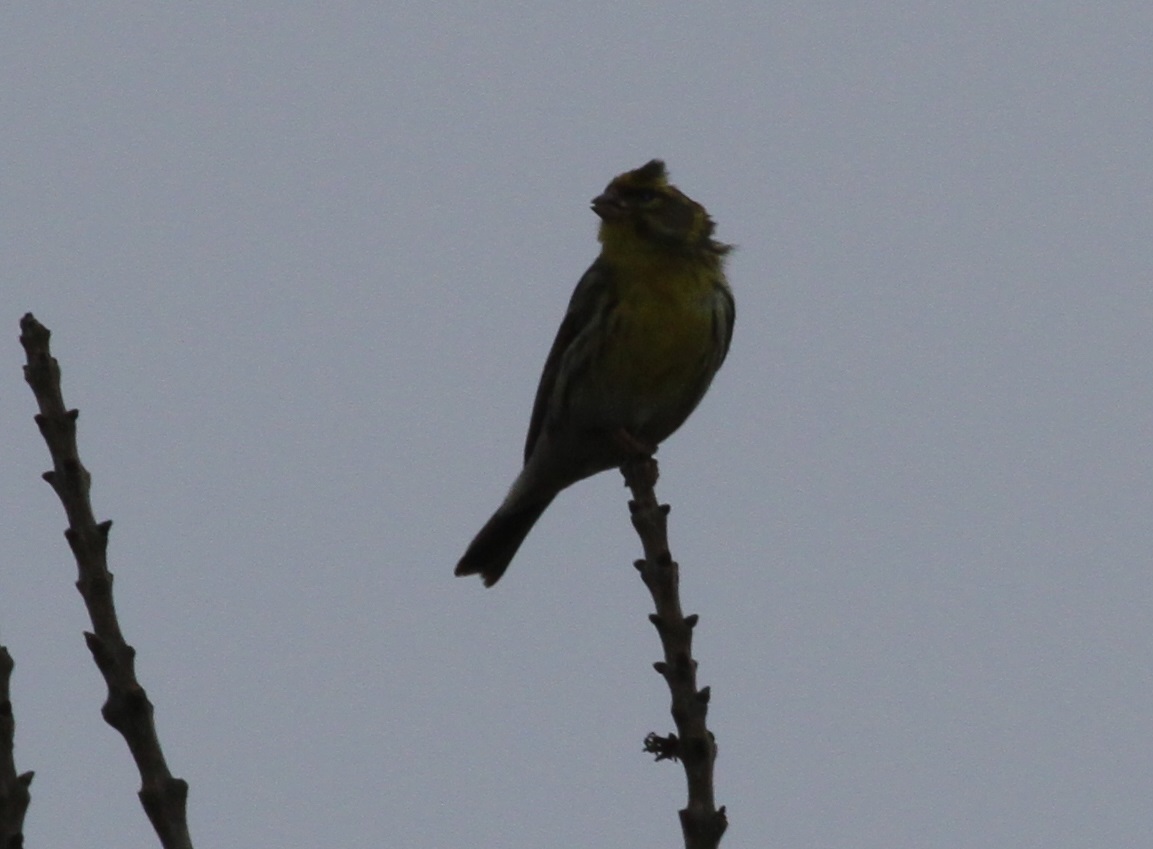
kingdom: Animalia
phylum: Chordata
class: Aves
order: Passeriformes
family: Fringillidae
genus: Serinus
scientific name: Serinus serinus
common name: European serin
